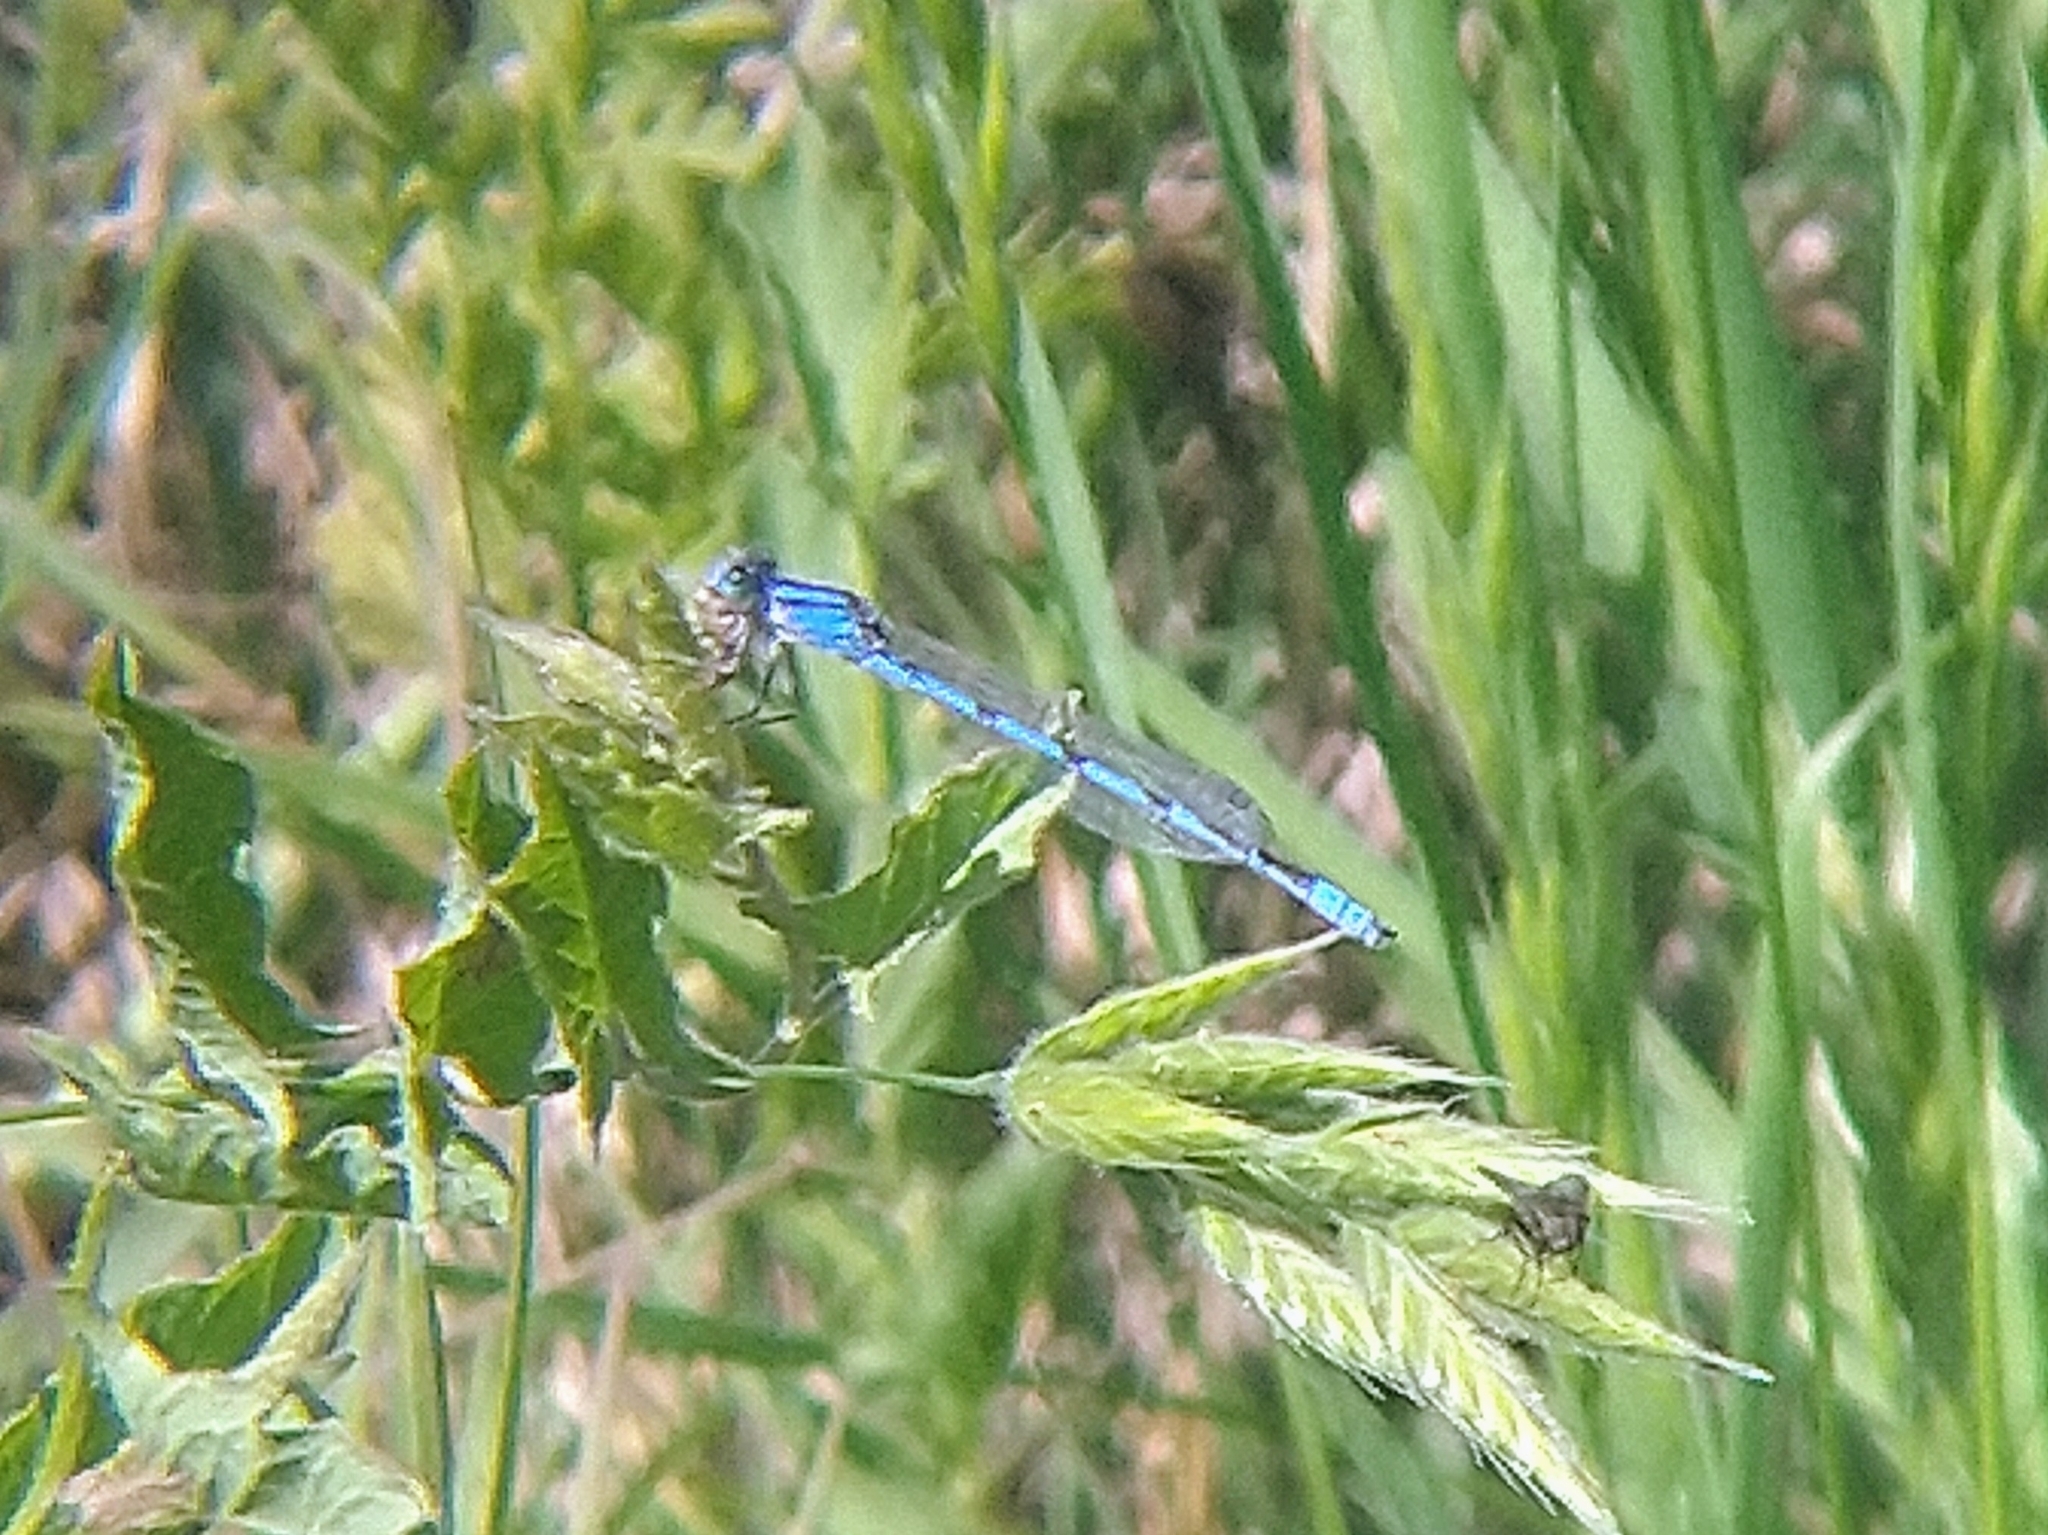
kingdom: Animalia
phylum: Arthropoda
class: Insecta
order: Odonata
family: Coenagrionidae
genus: Enallagma
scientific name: Enallagma civile
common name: Damselfly
